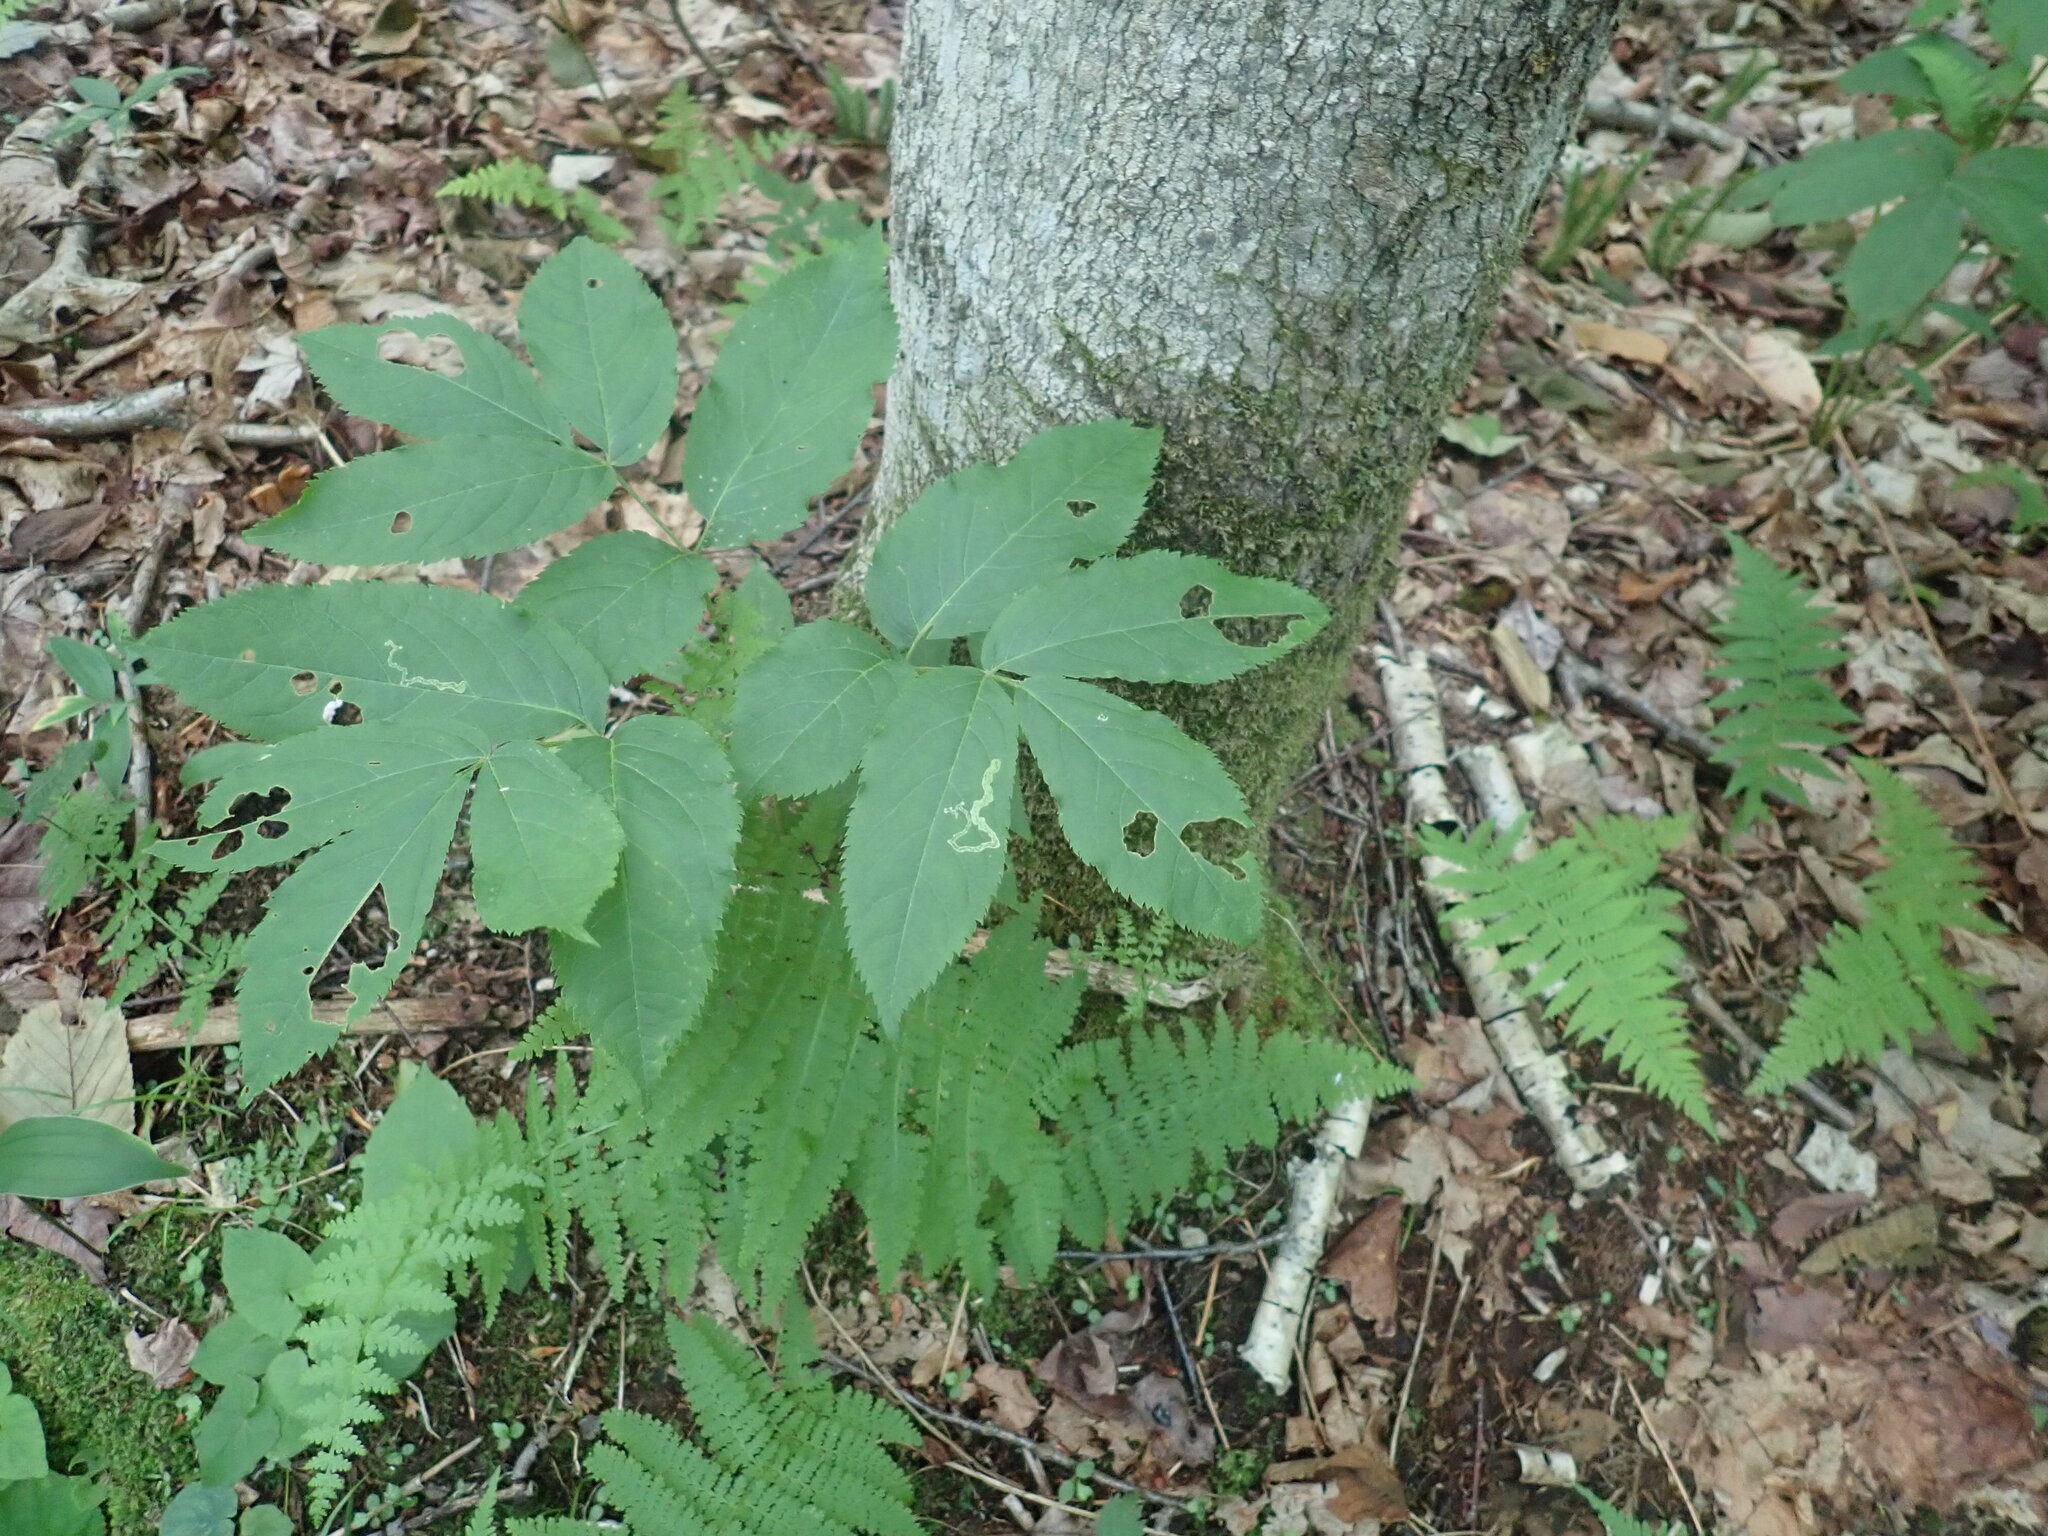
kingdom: Plantae
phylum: Tracheophyta
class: Magnoliopsida
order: Apiales
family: Araliaceae
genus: Aralia
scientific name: Aralia nudicaulis
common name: Wild sarsaparilla
